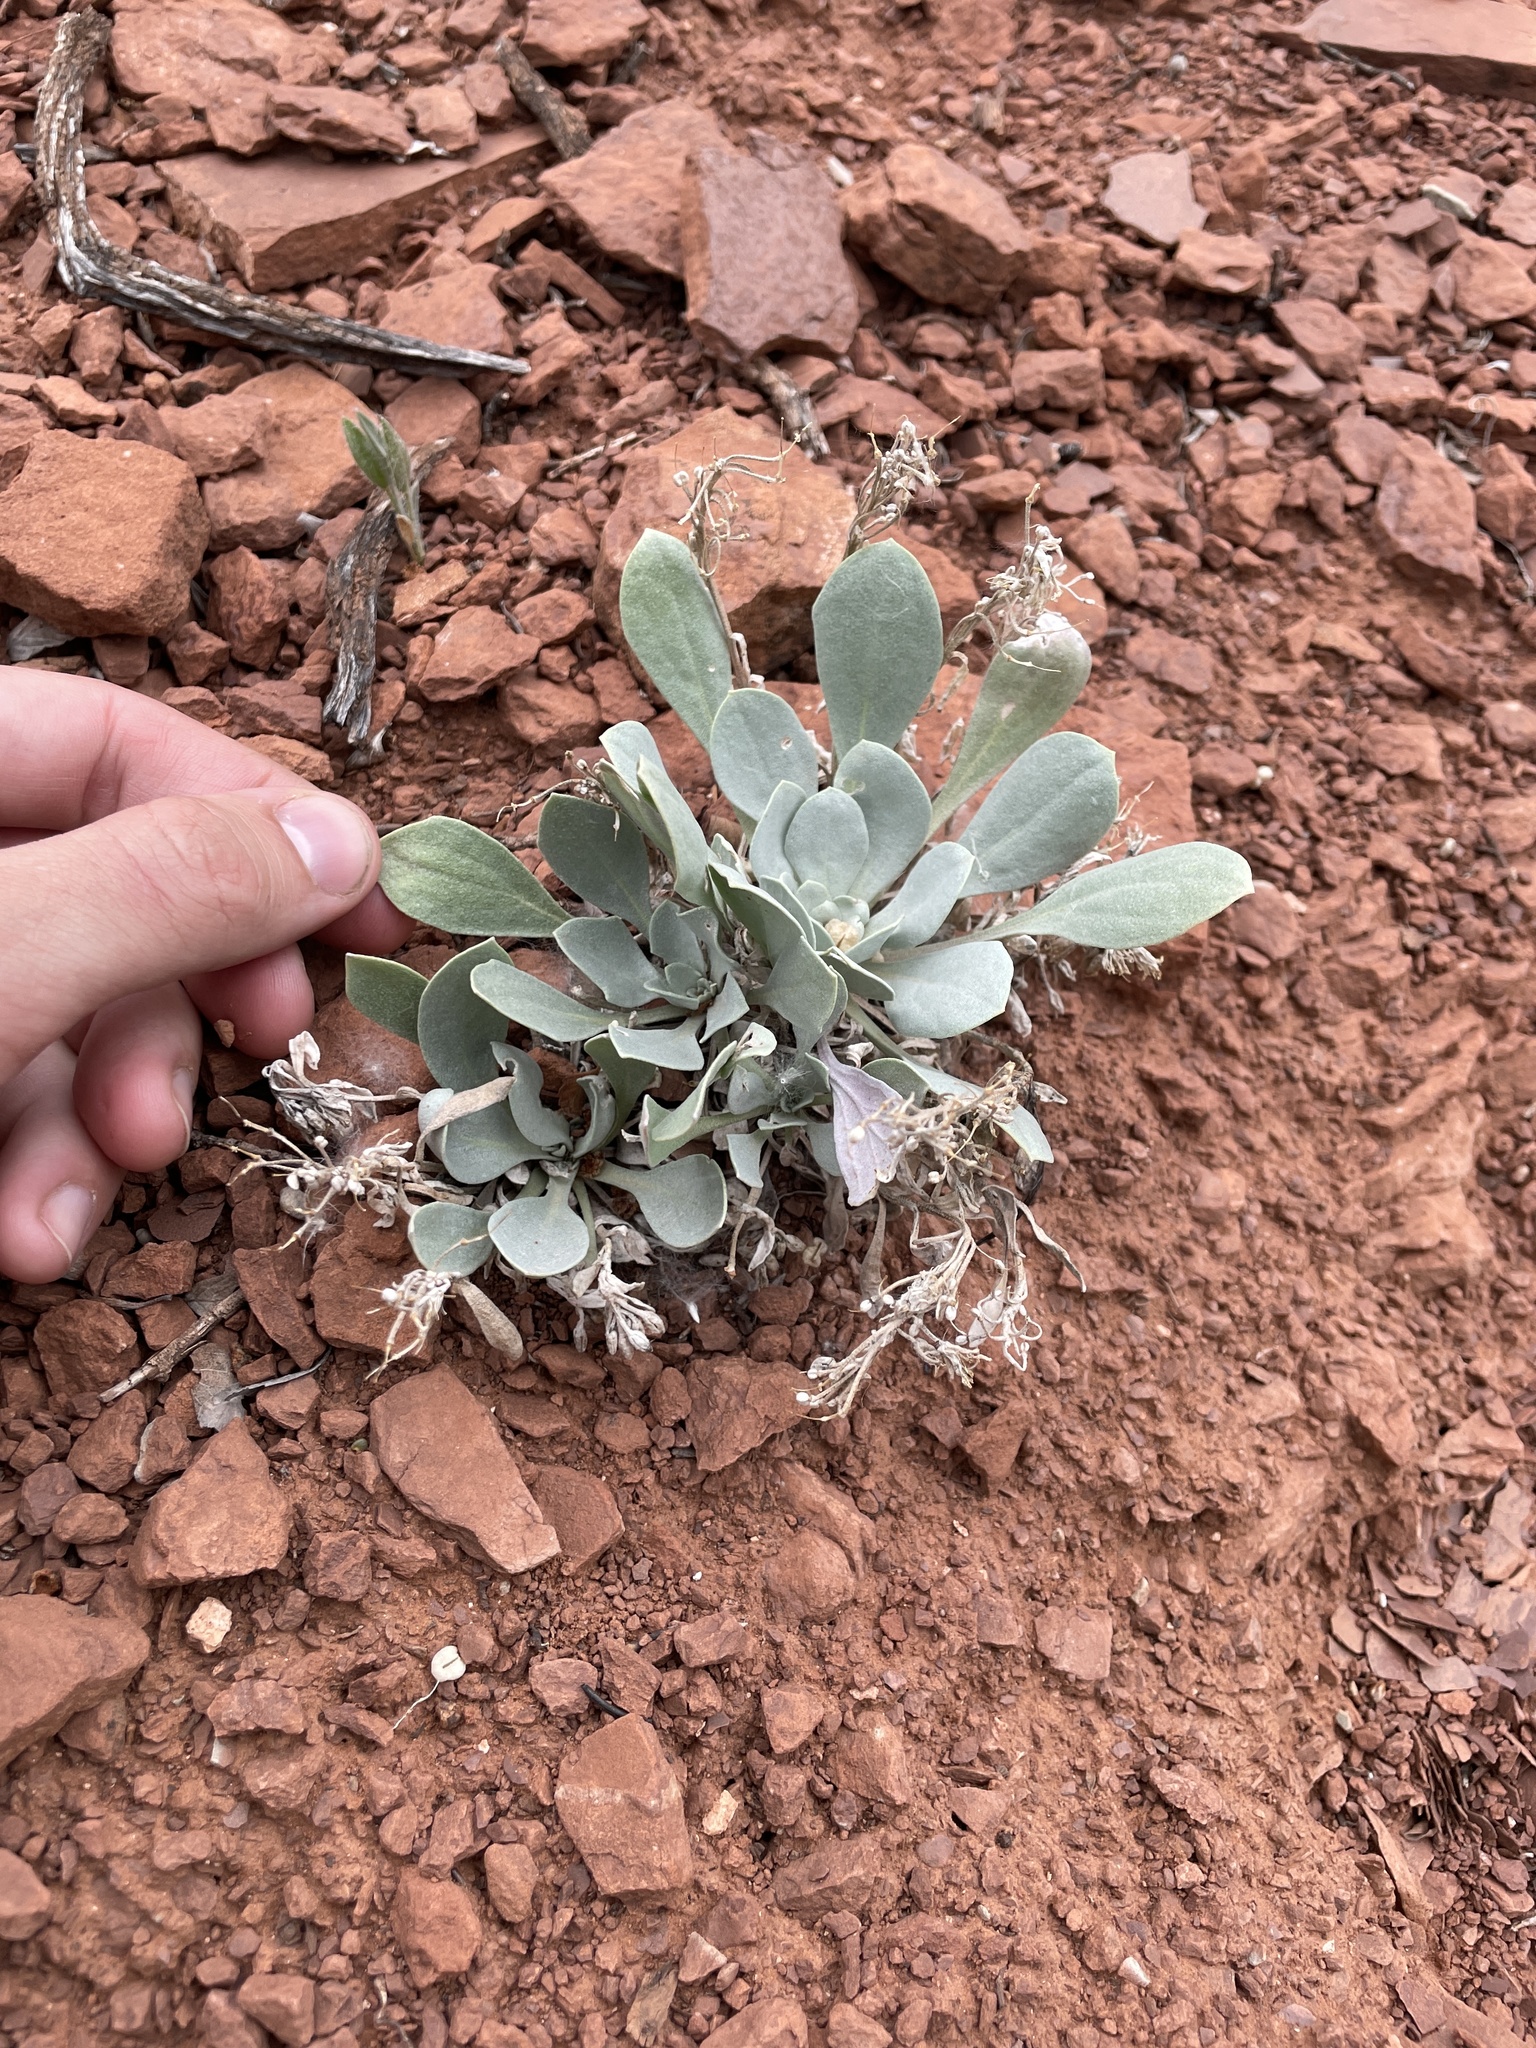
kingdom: Plantae
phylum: Tracheophyta
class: Magnoliopsida
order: Brassicales
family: Brassicaceae
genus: Physaria
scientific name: Physaria bellii
